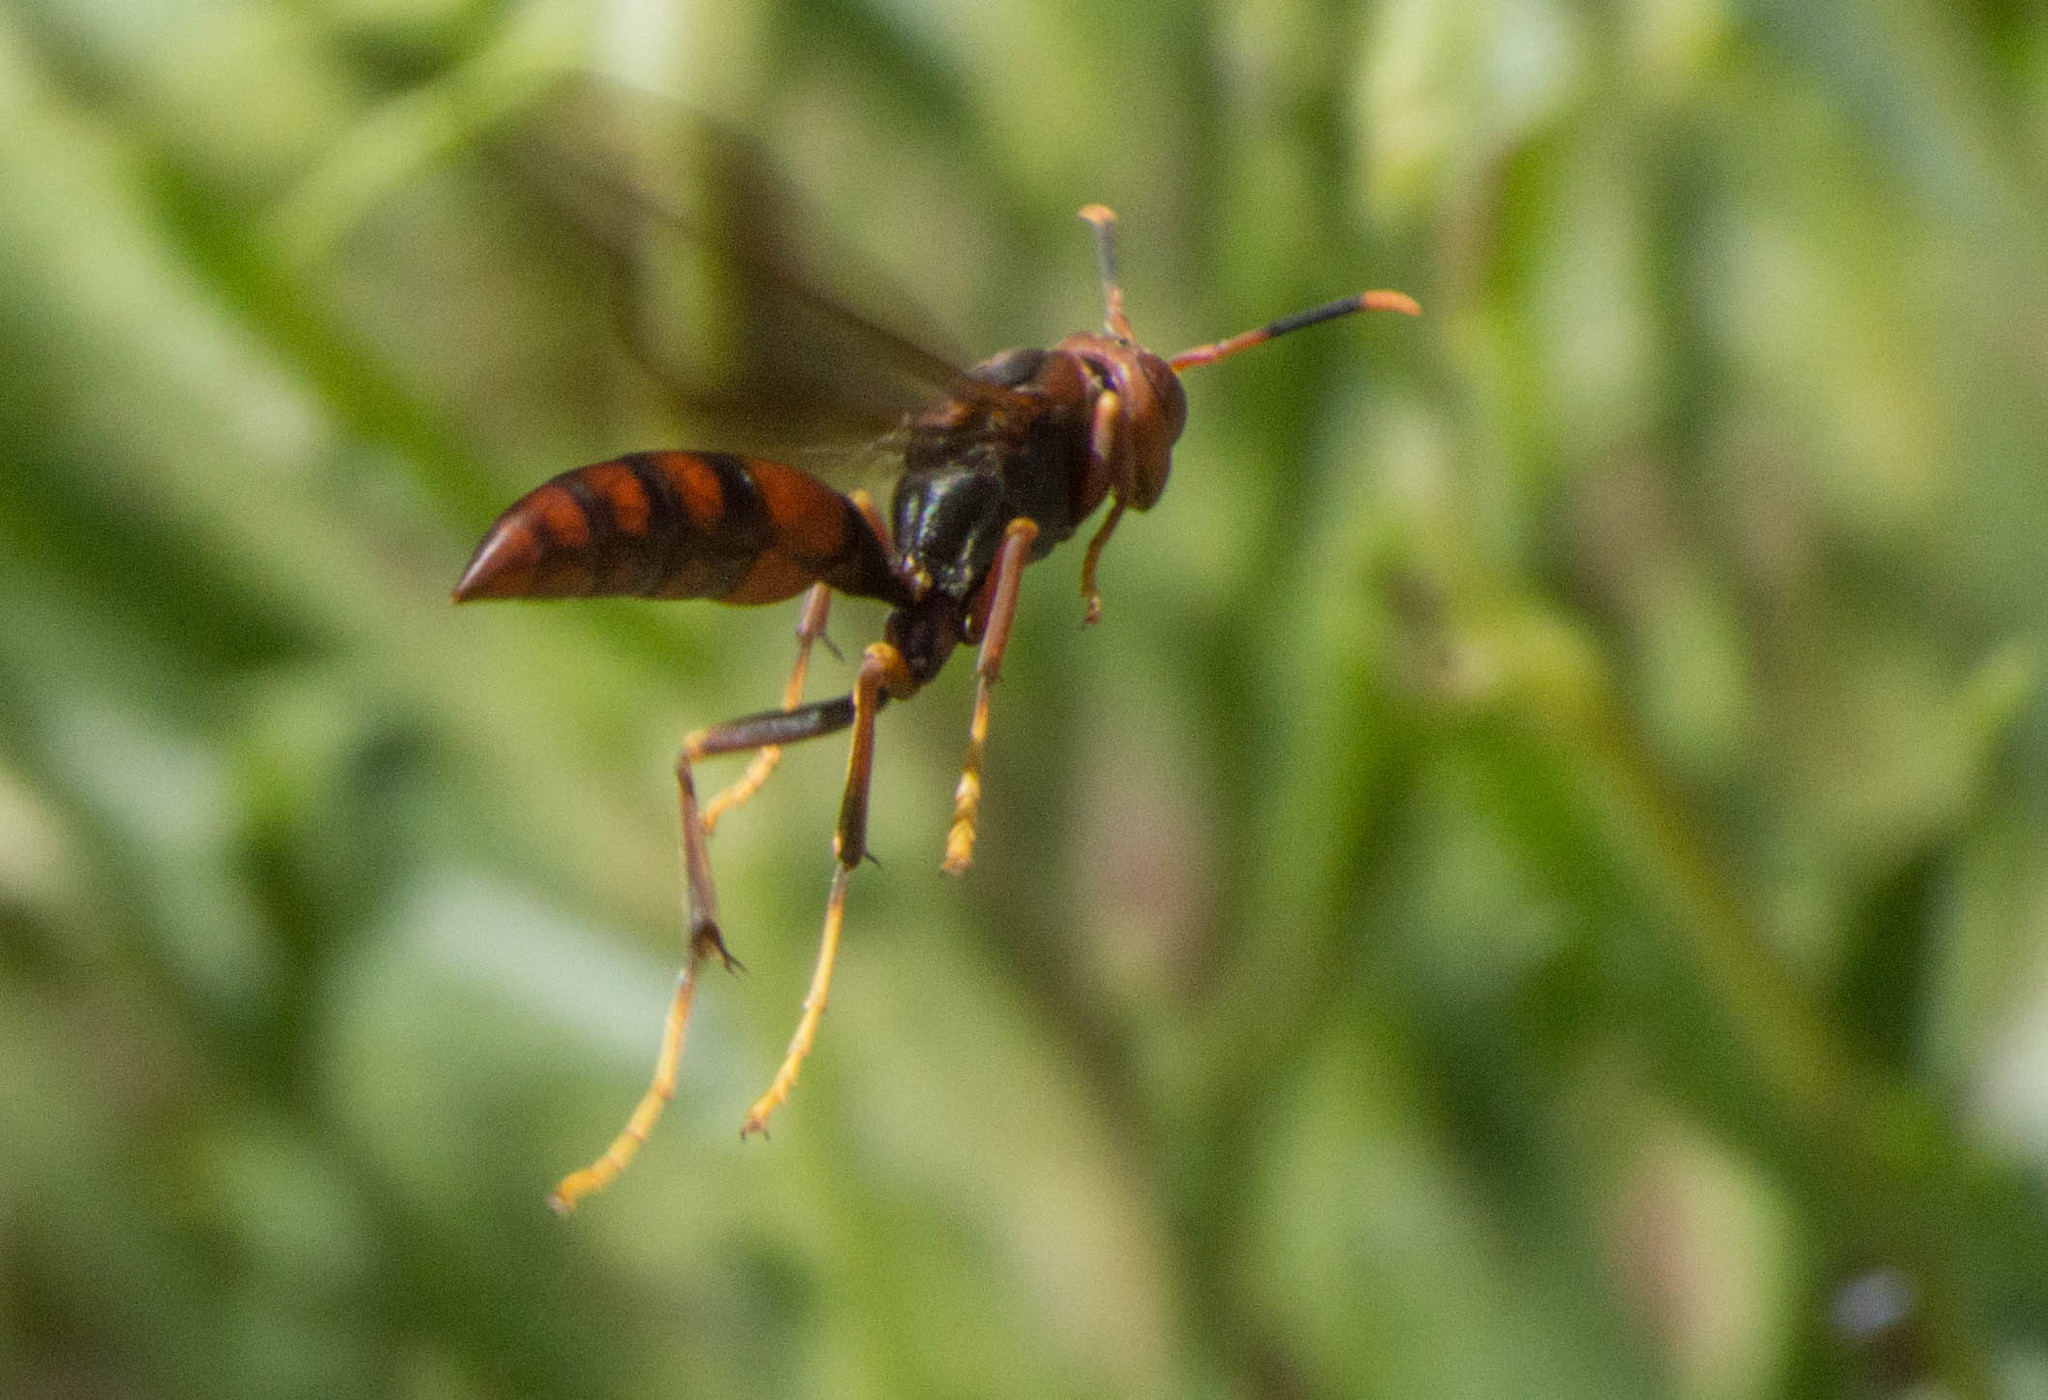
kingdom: Animalia
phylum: Arthropoda
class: Insecta
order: Hymenoptera
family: Pompilidae
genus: Aphanilopterus
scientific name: Aphanilopterus
